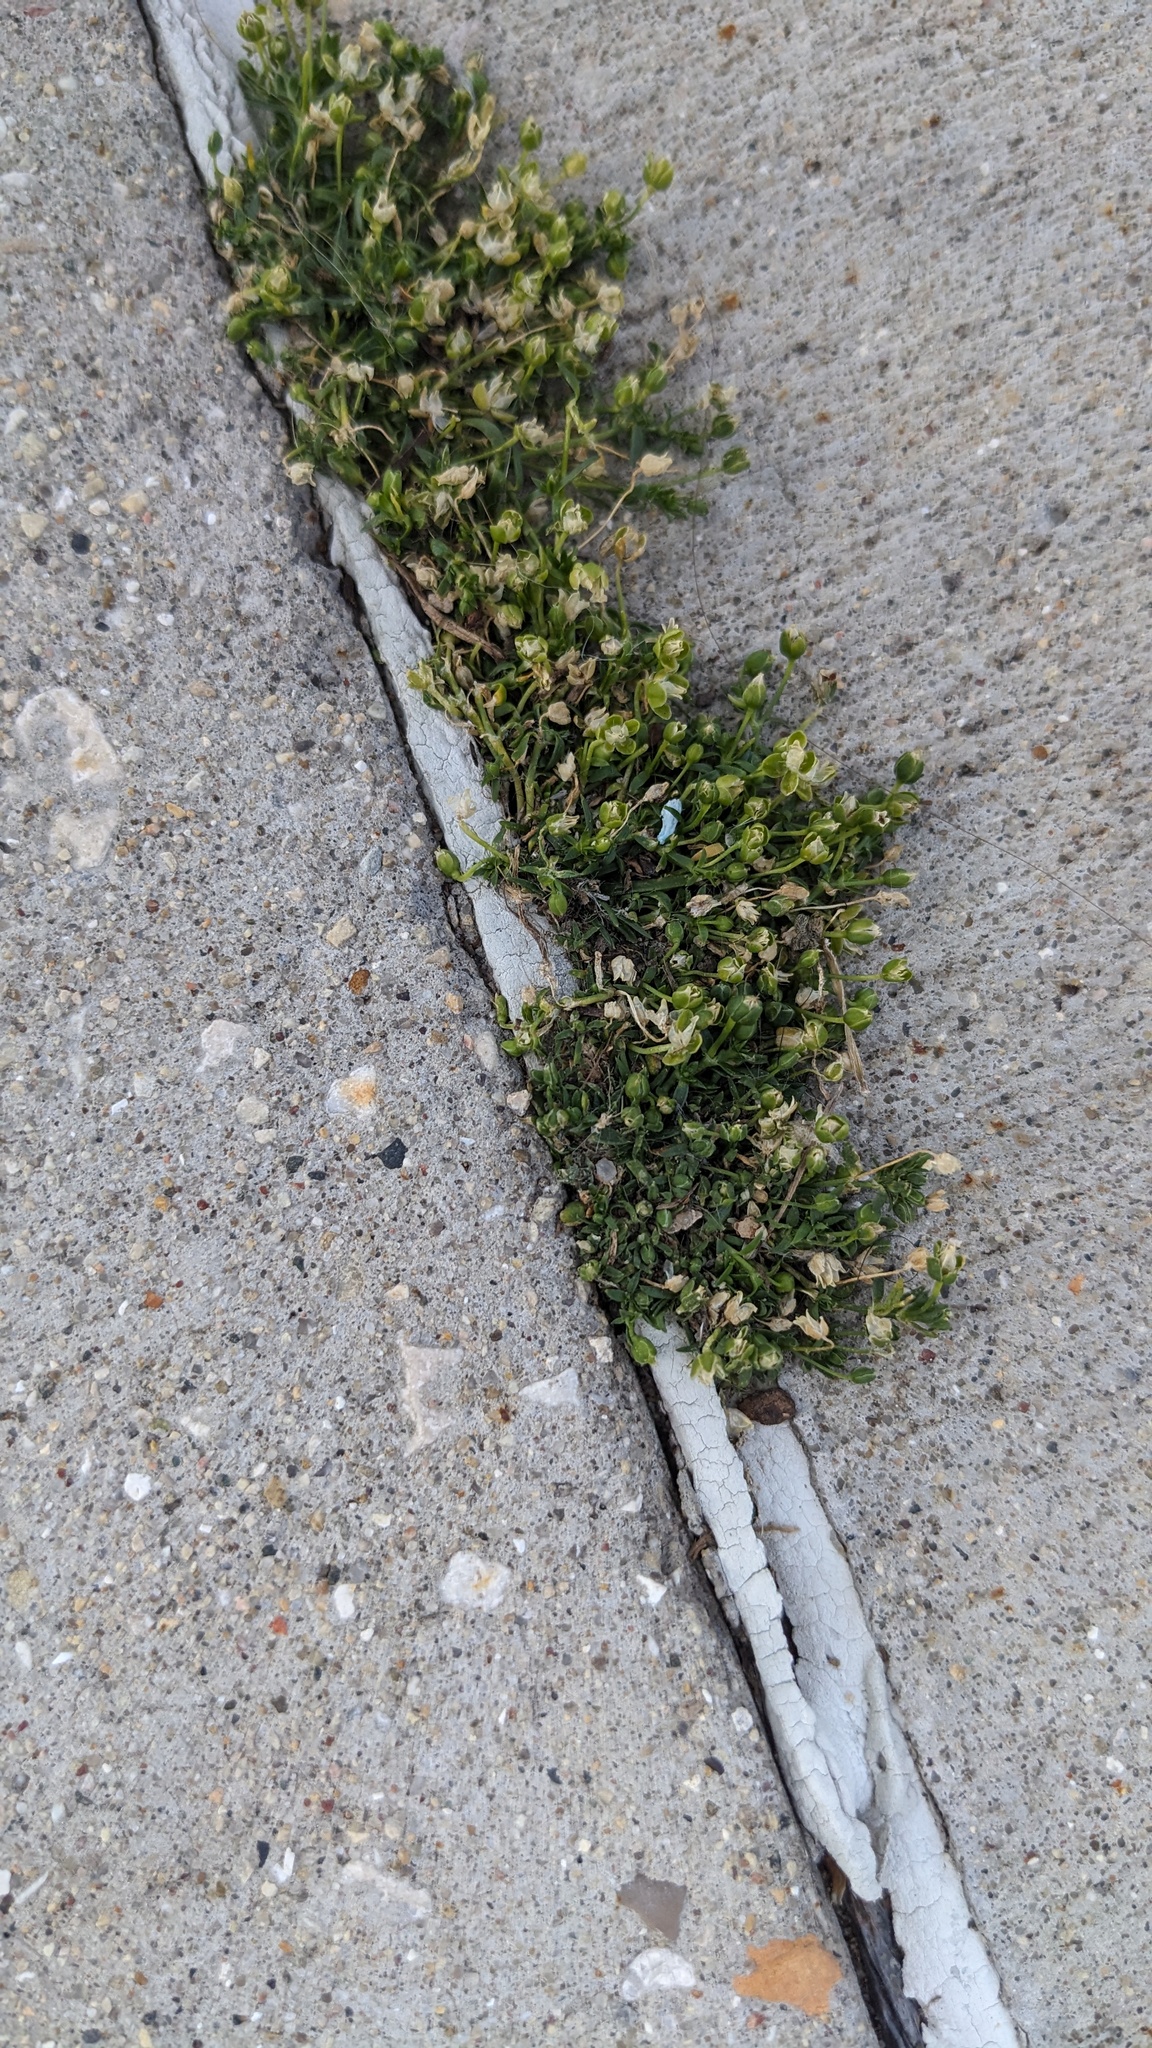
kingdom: Plantae
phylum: Tracheophyta
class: Magnoliopsida
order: Caryophyllales
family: Caryophyllaceae
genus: Sagina
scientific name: Sagina procumbens
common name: Procumbent pearlwort
